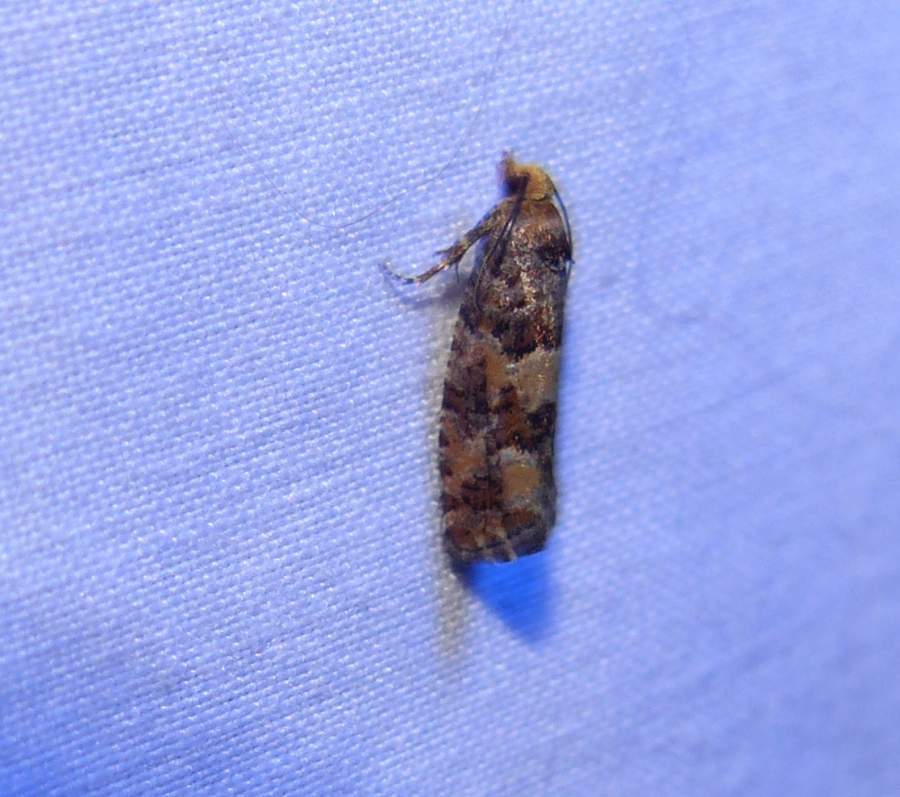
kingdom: Animalia
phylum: Arthropoda
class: Insecta
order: Lepidoptera
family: Tortricidae
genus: Eucopina
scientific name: Eucopina tocullionana
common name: White pinecone borer moth
